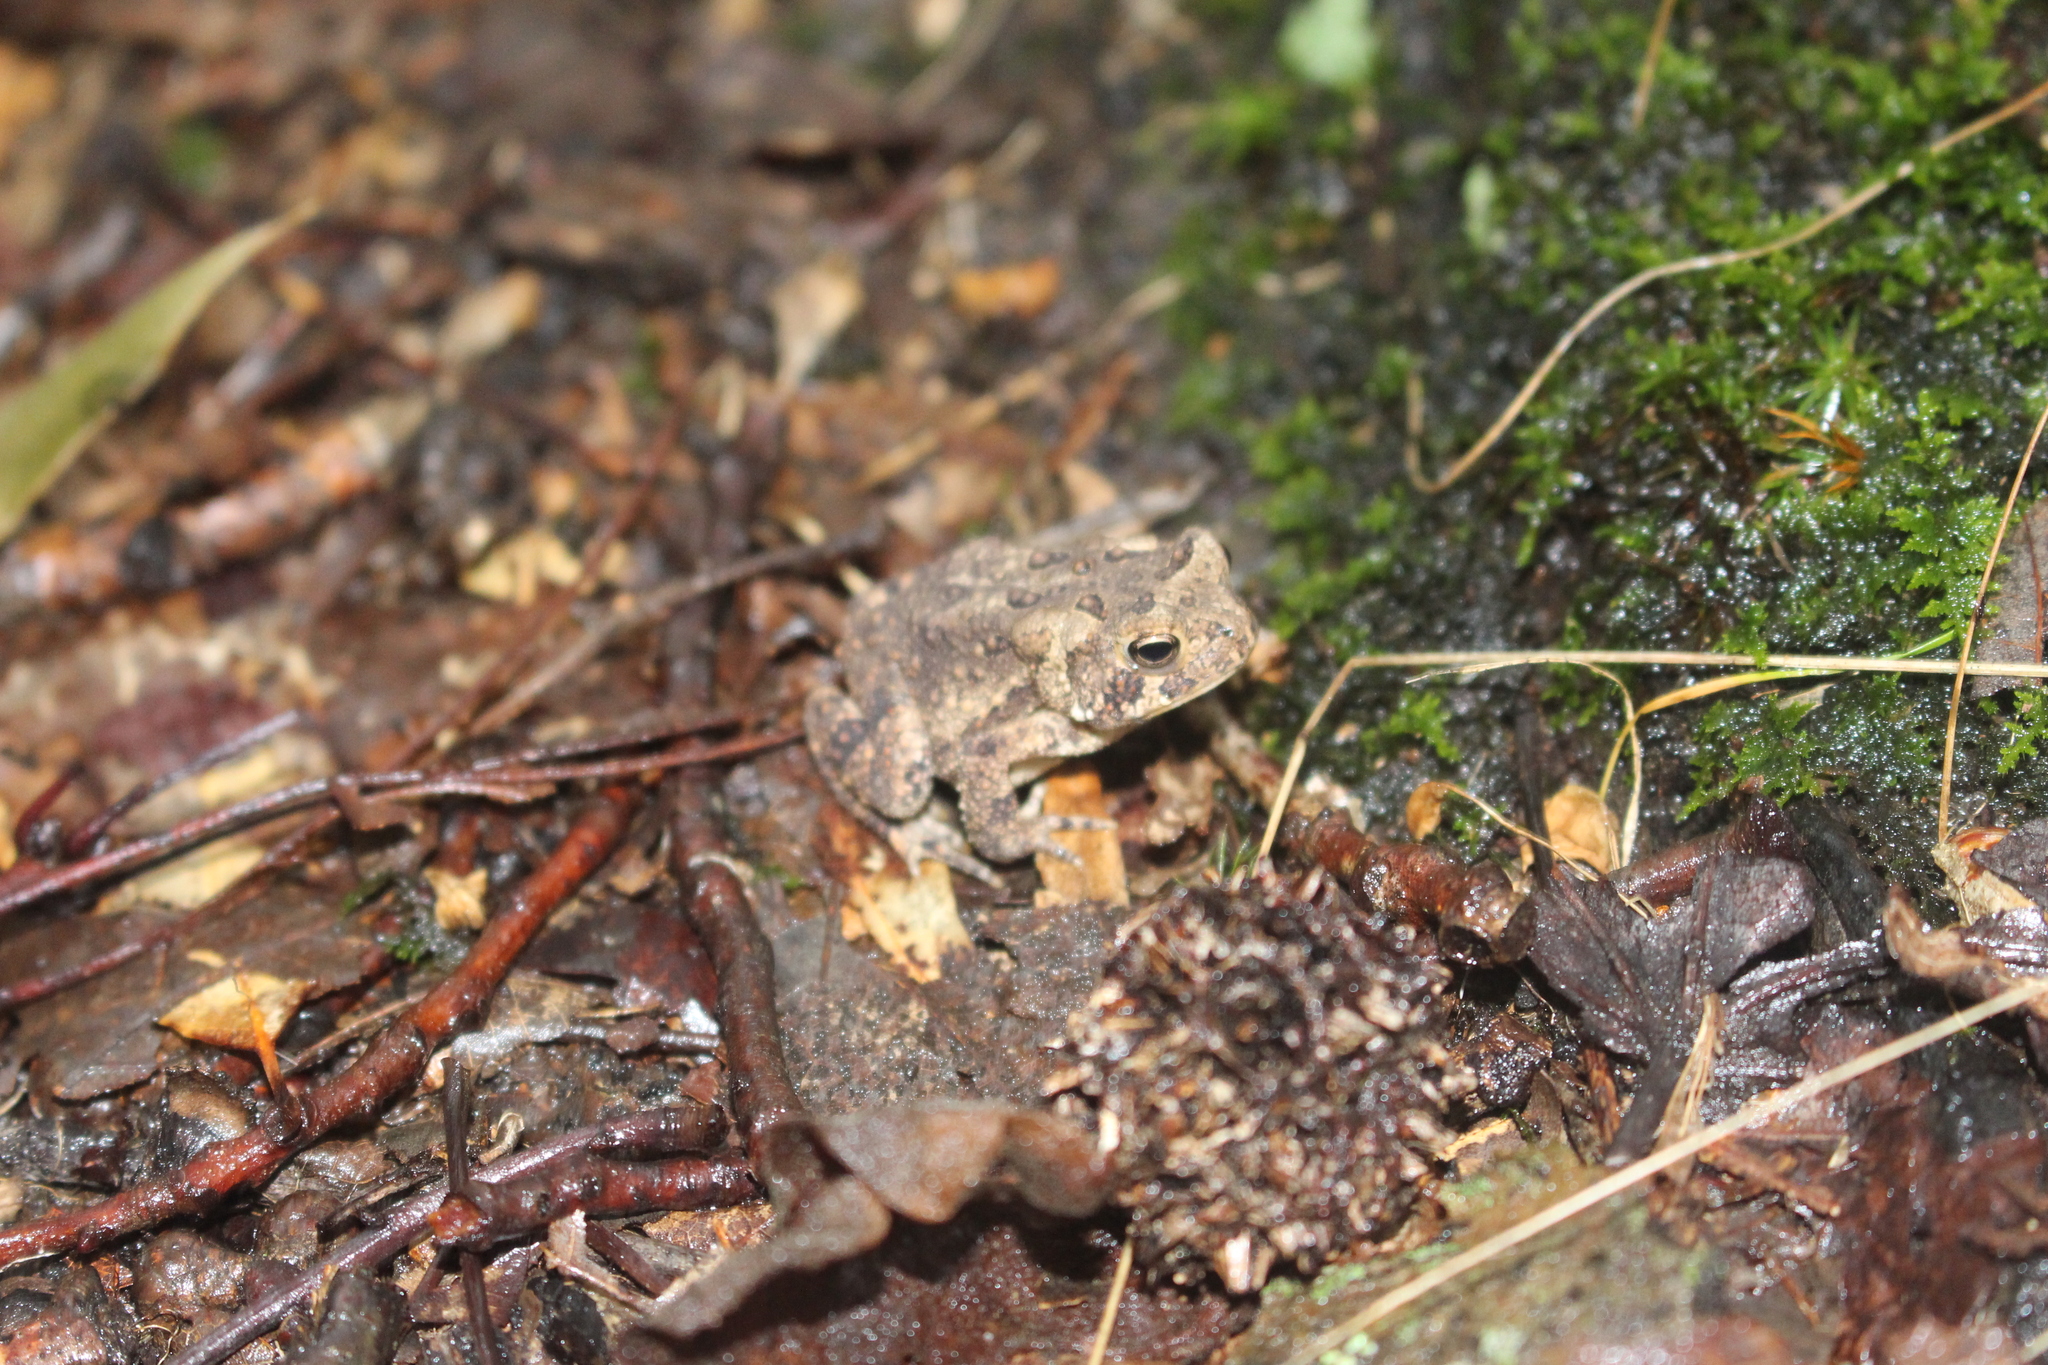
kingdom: Animalia
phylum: Chordata
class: Amphibia
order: Anura
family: Bufonidae
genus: Anaxyrus
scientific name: Anaxyrus americanus
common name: American toad
